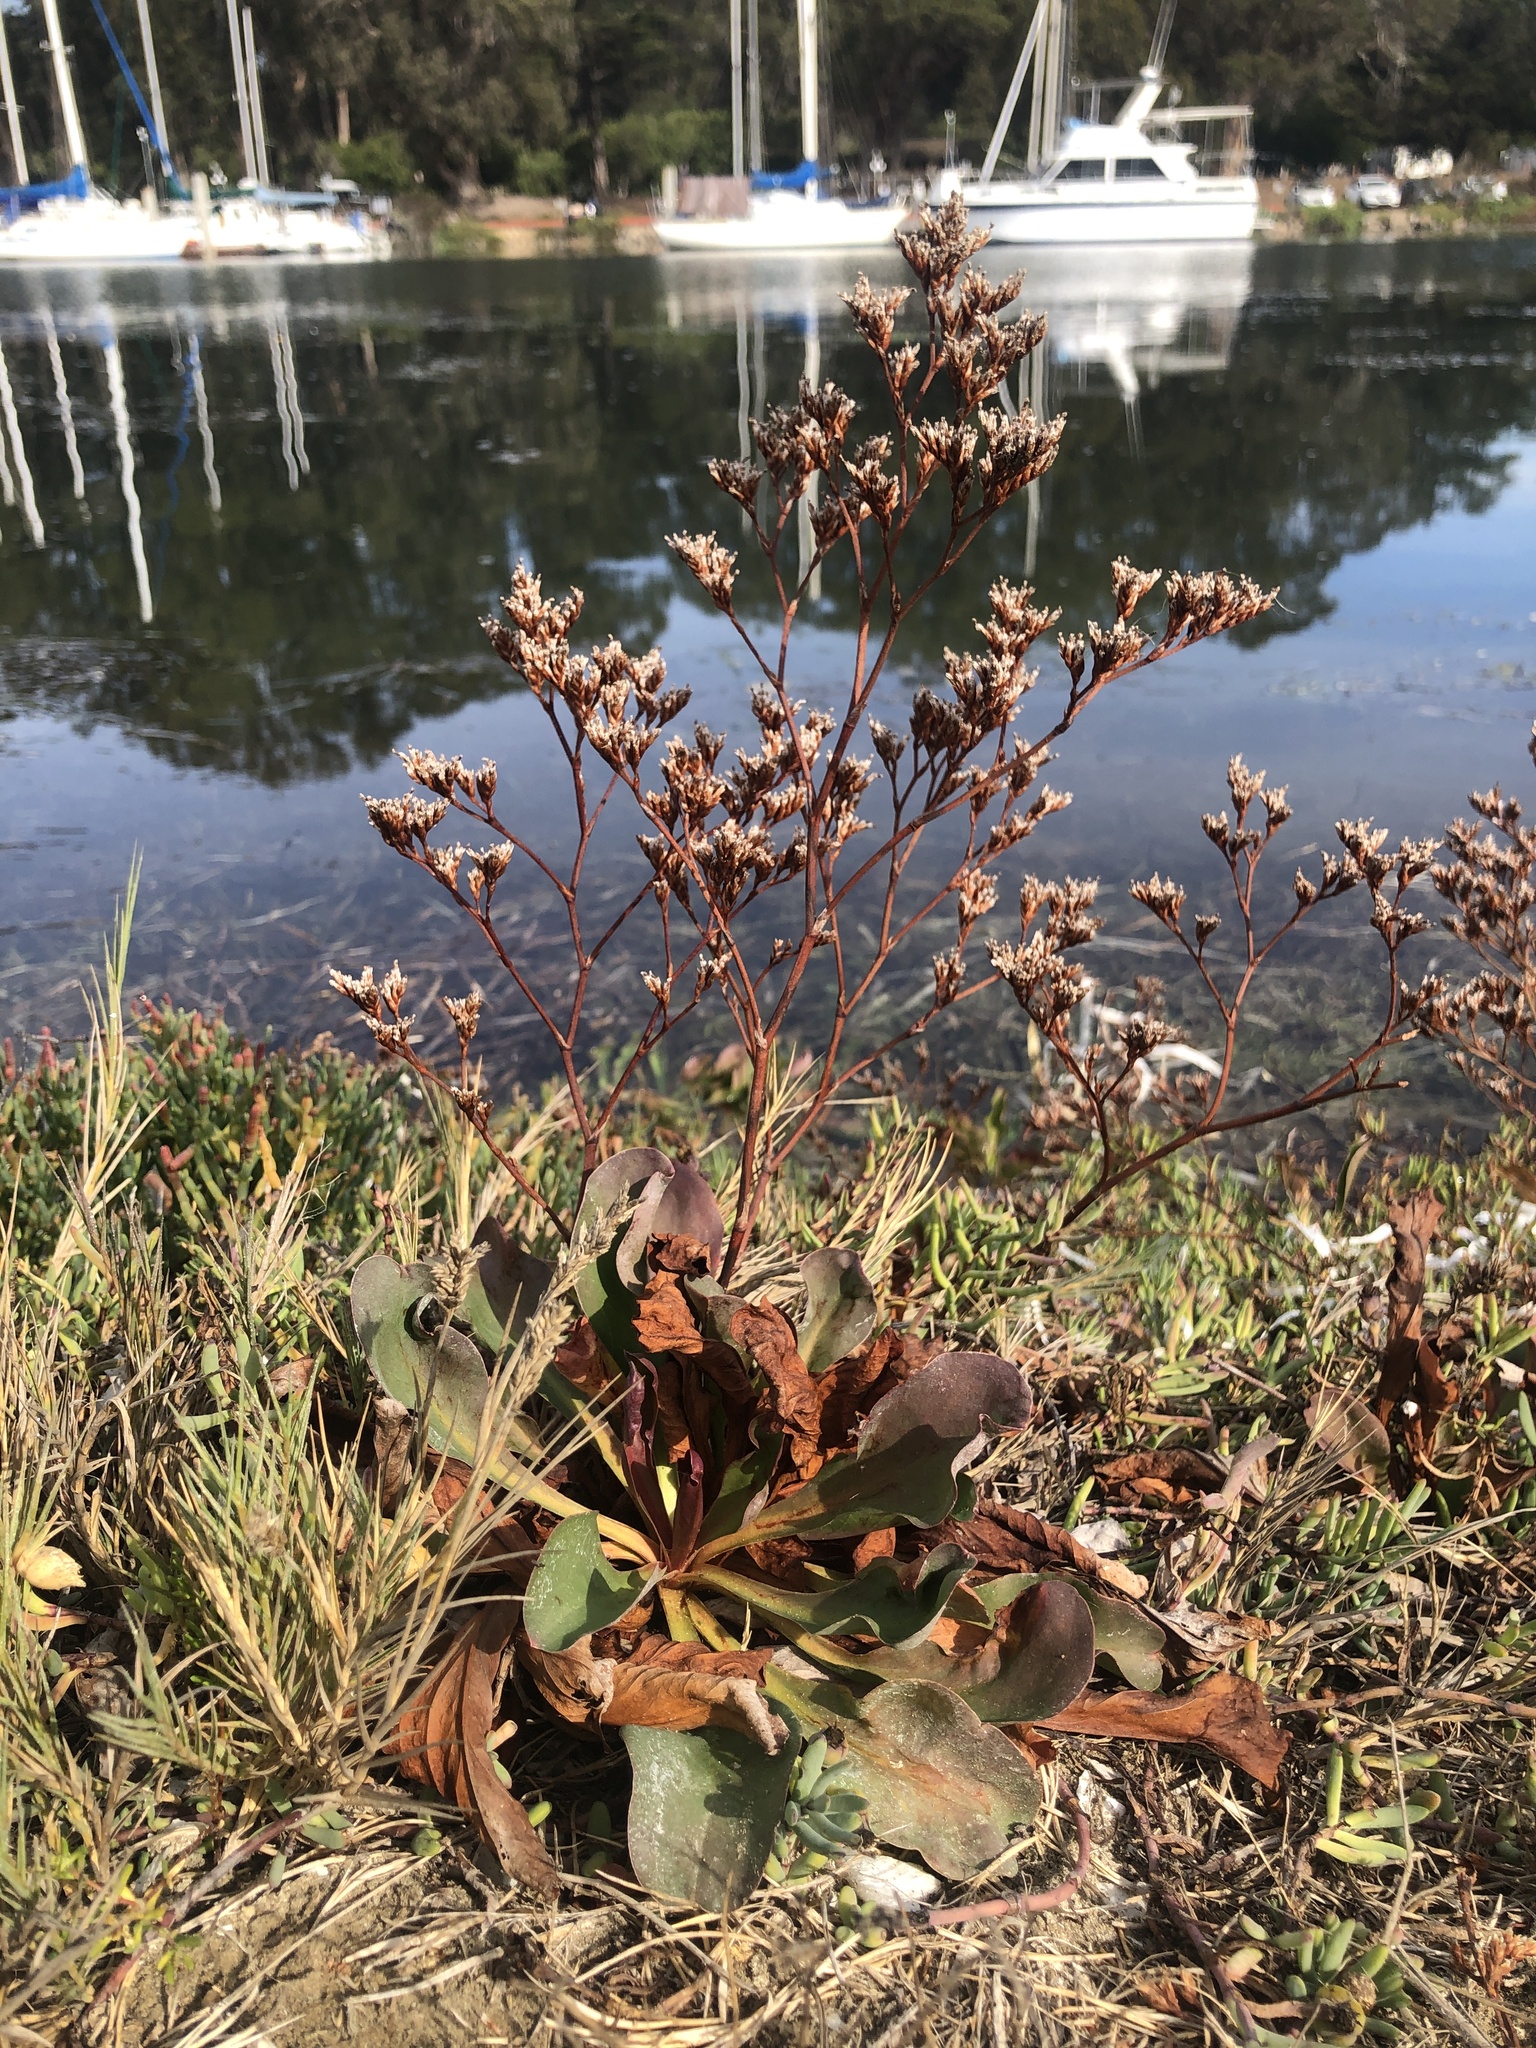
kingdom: Plantae
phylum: Tracheophyta
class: Magnoliopsida
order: Caryophyllales
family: Plumbaginaceae
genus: Limonium
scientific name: Limonium californicum
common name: Marsh-rosemary
